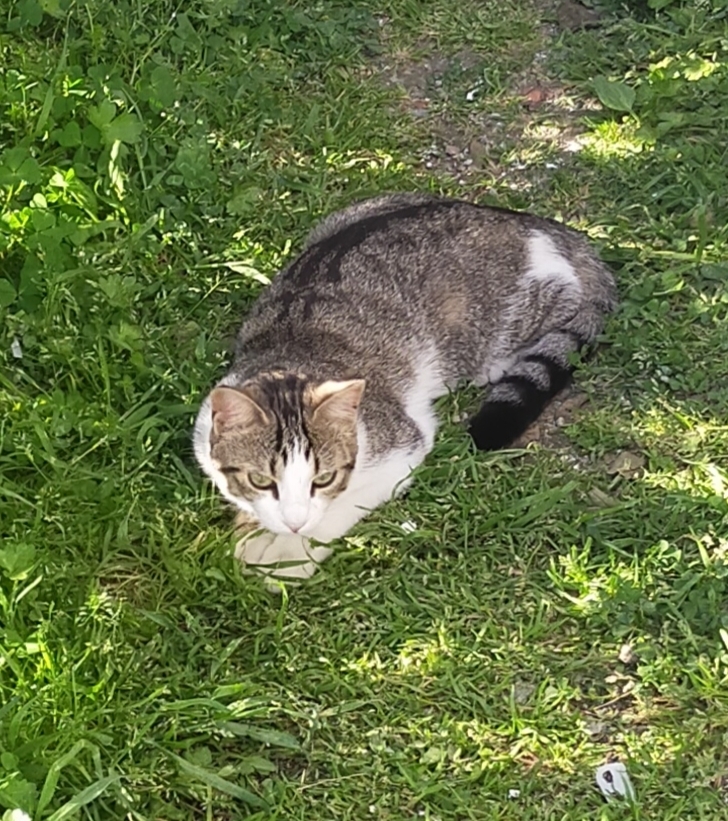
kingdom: Animalia
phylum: Chordata
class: Mammalia
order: Carnivora
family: Felidae
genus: Felis
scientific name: Felis catus
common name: Domestic cat
